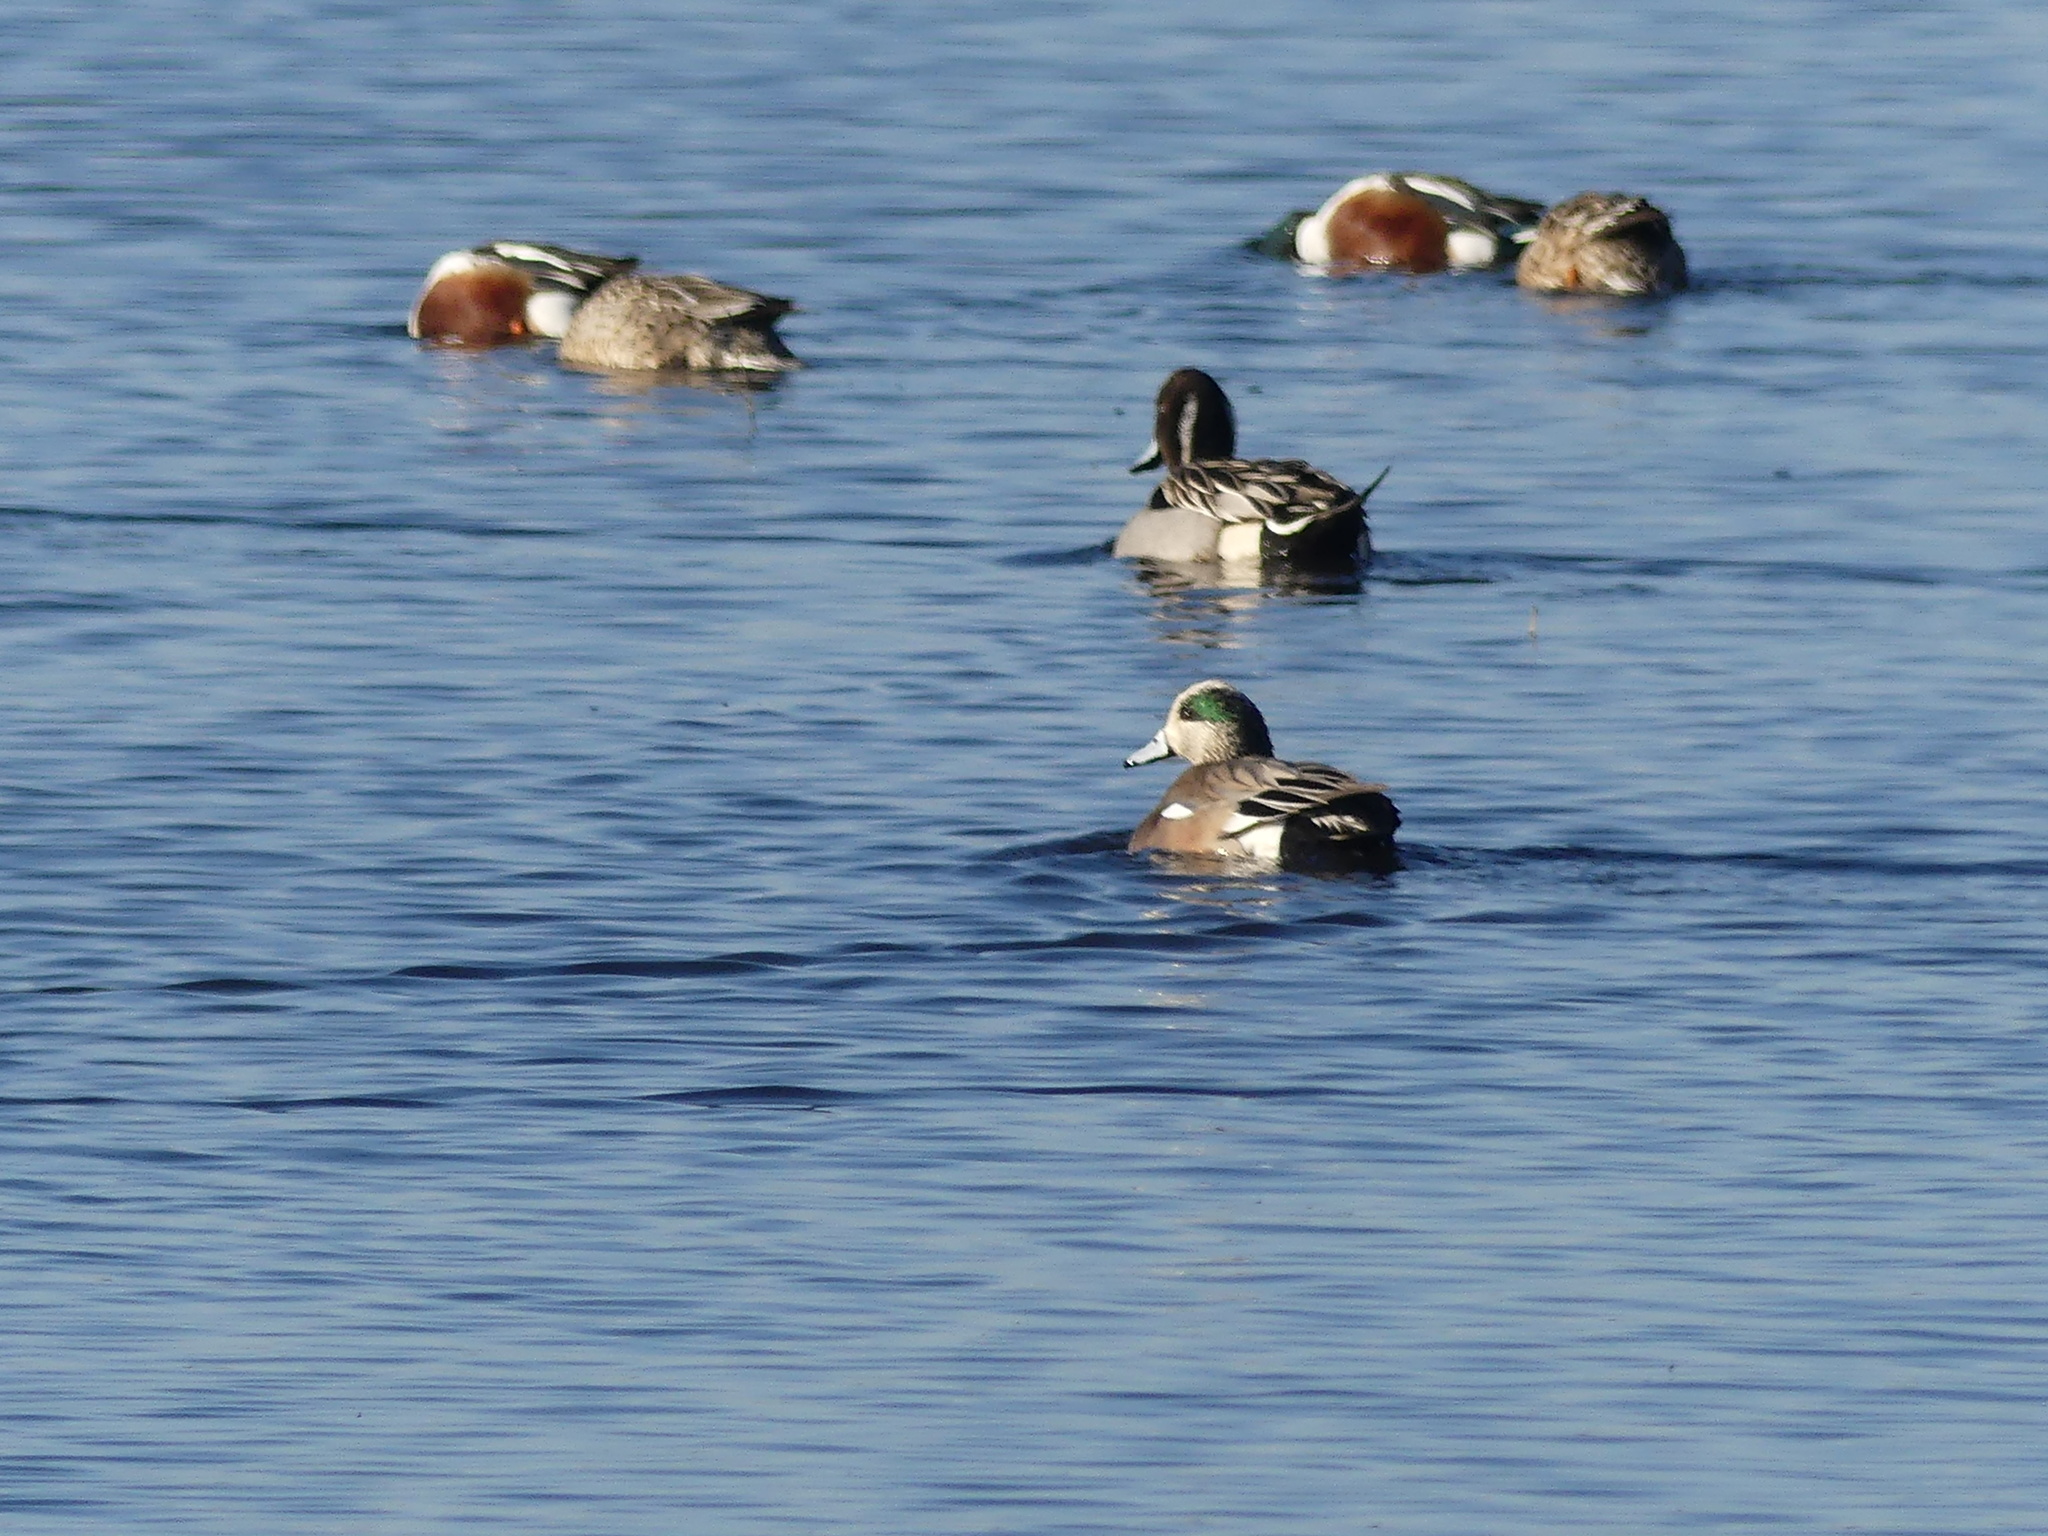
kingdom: Animalia
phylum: Chordata
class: Aves
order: Anseriformes
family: Anatidae
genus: Mareca
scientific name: Mareca americana
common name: American wigeon
